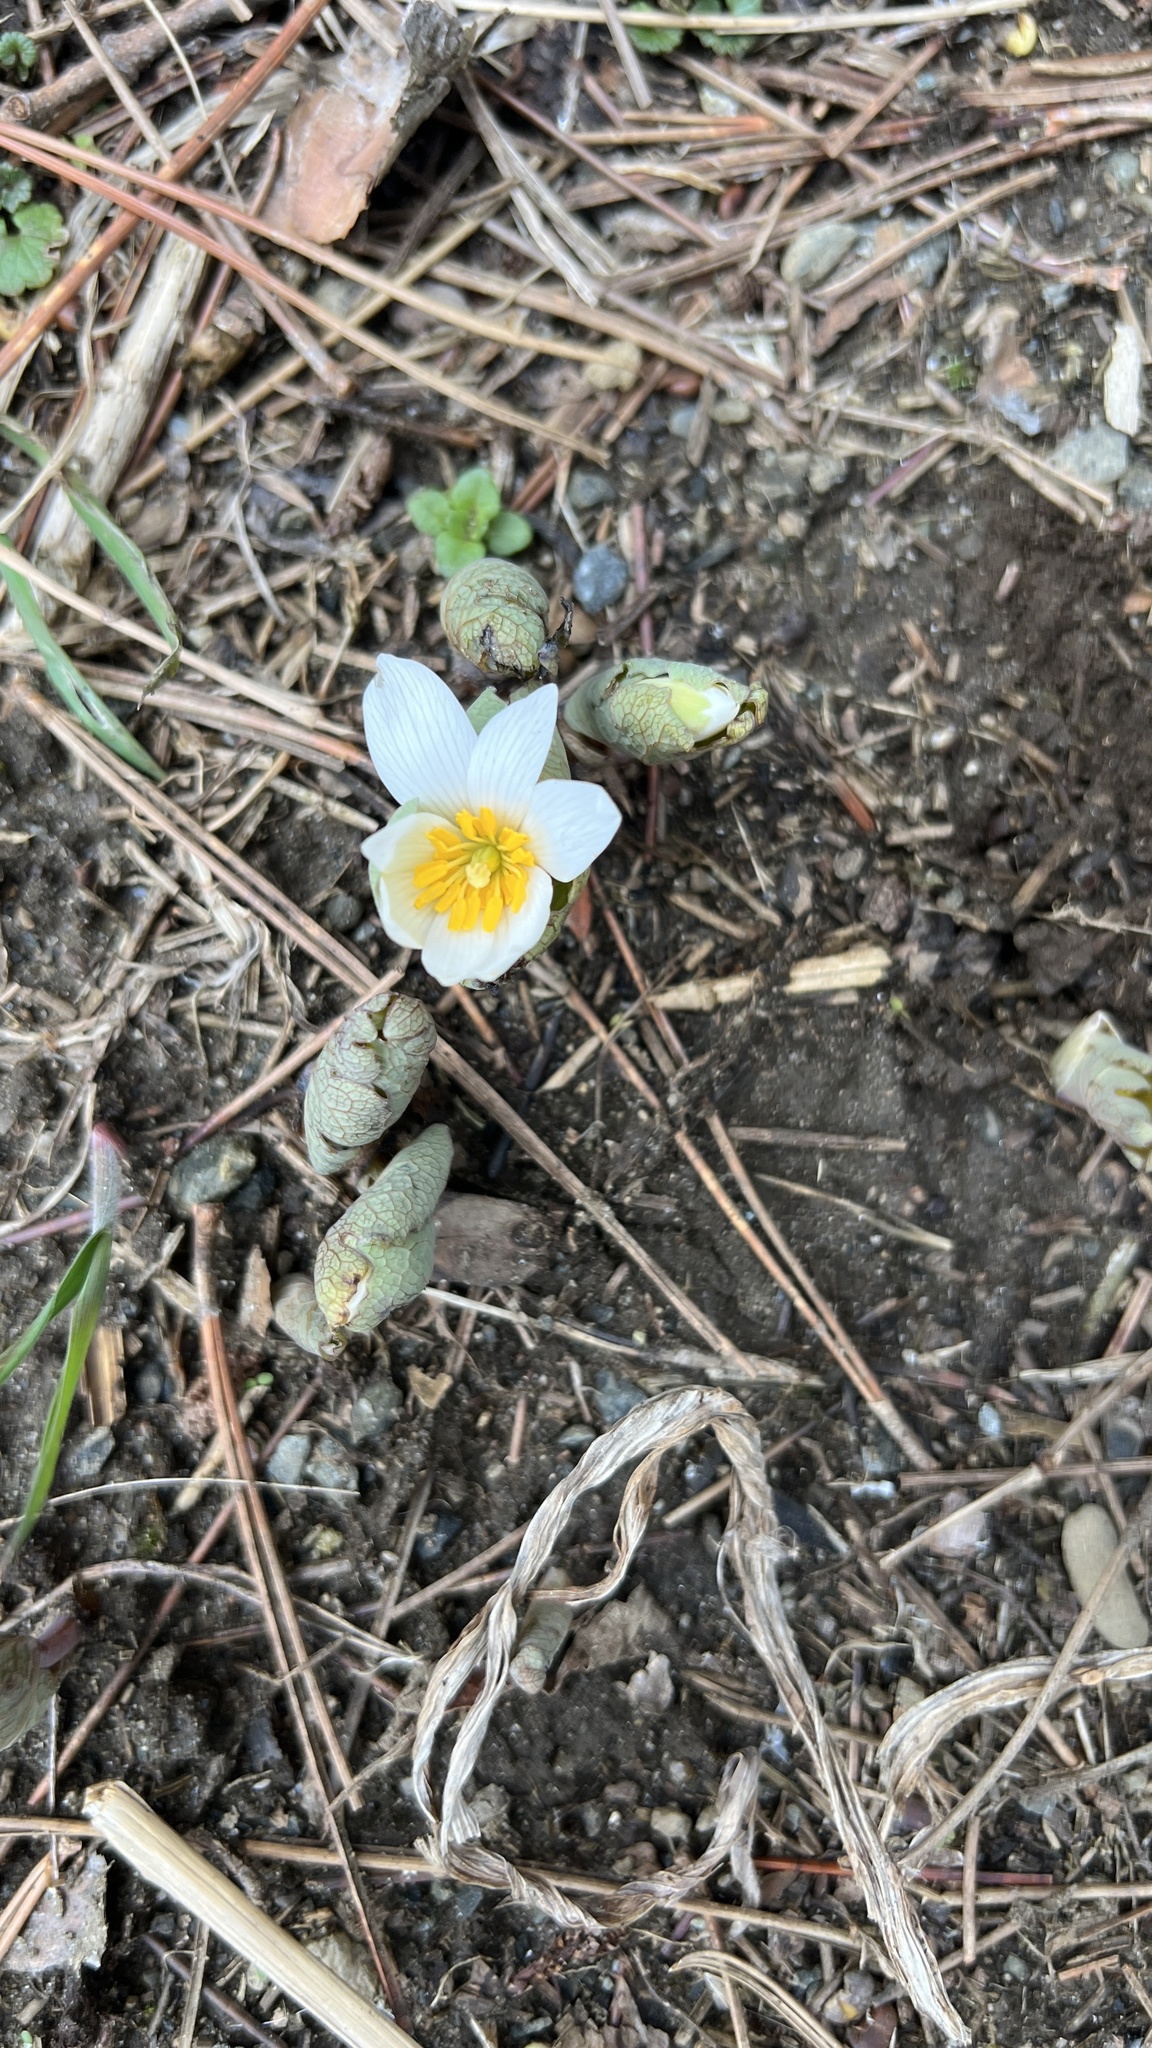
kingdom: Plantae
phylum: Tracheophyta
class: Magnoliopsida
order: Ranunculales
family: Papaveraceae
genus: Sanguinaria
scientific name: Sanguinaria canadensis
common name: Bloodroot
